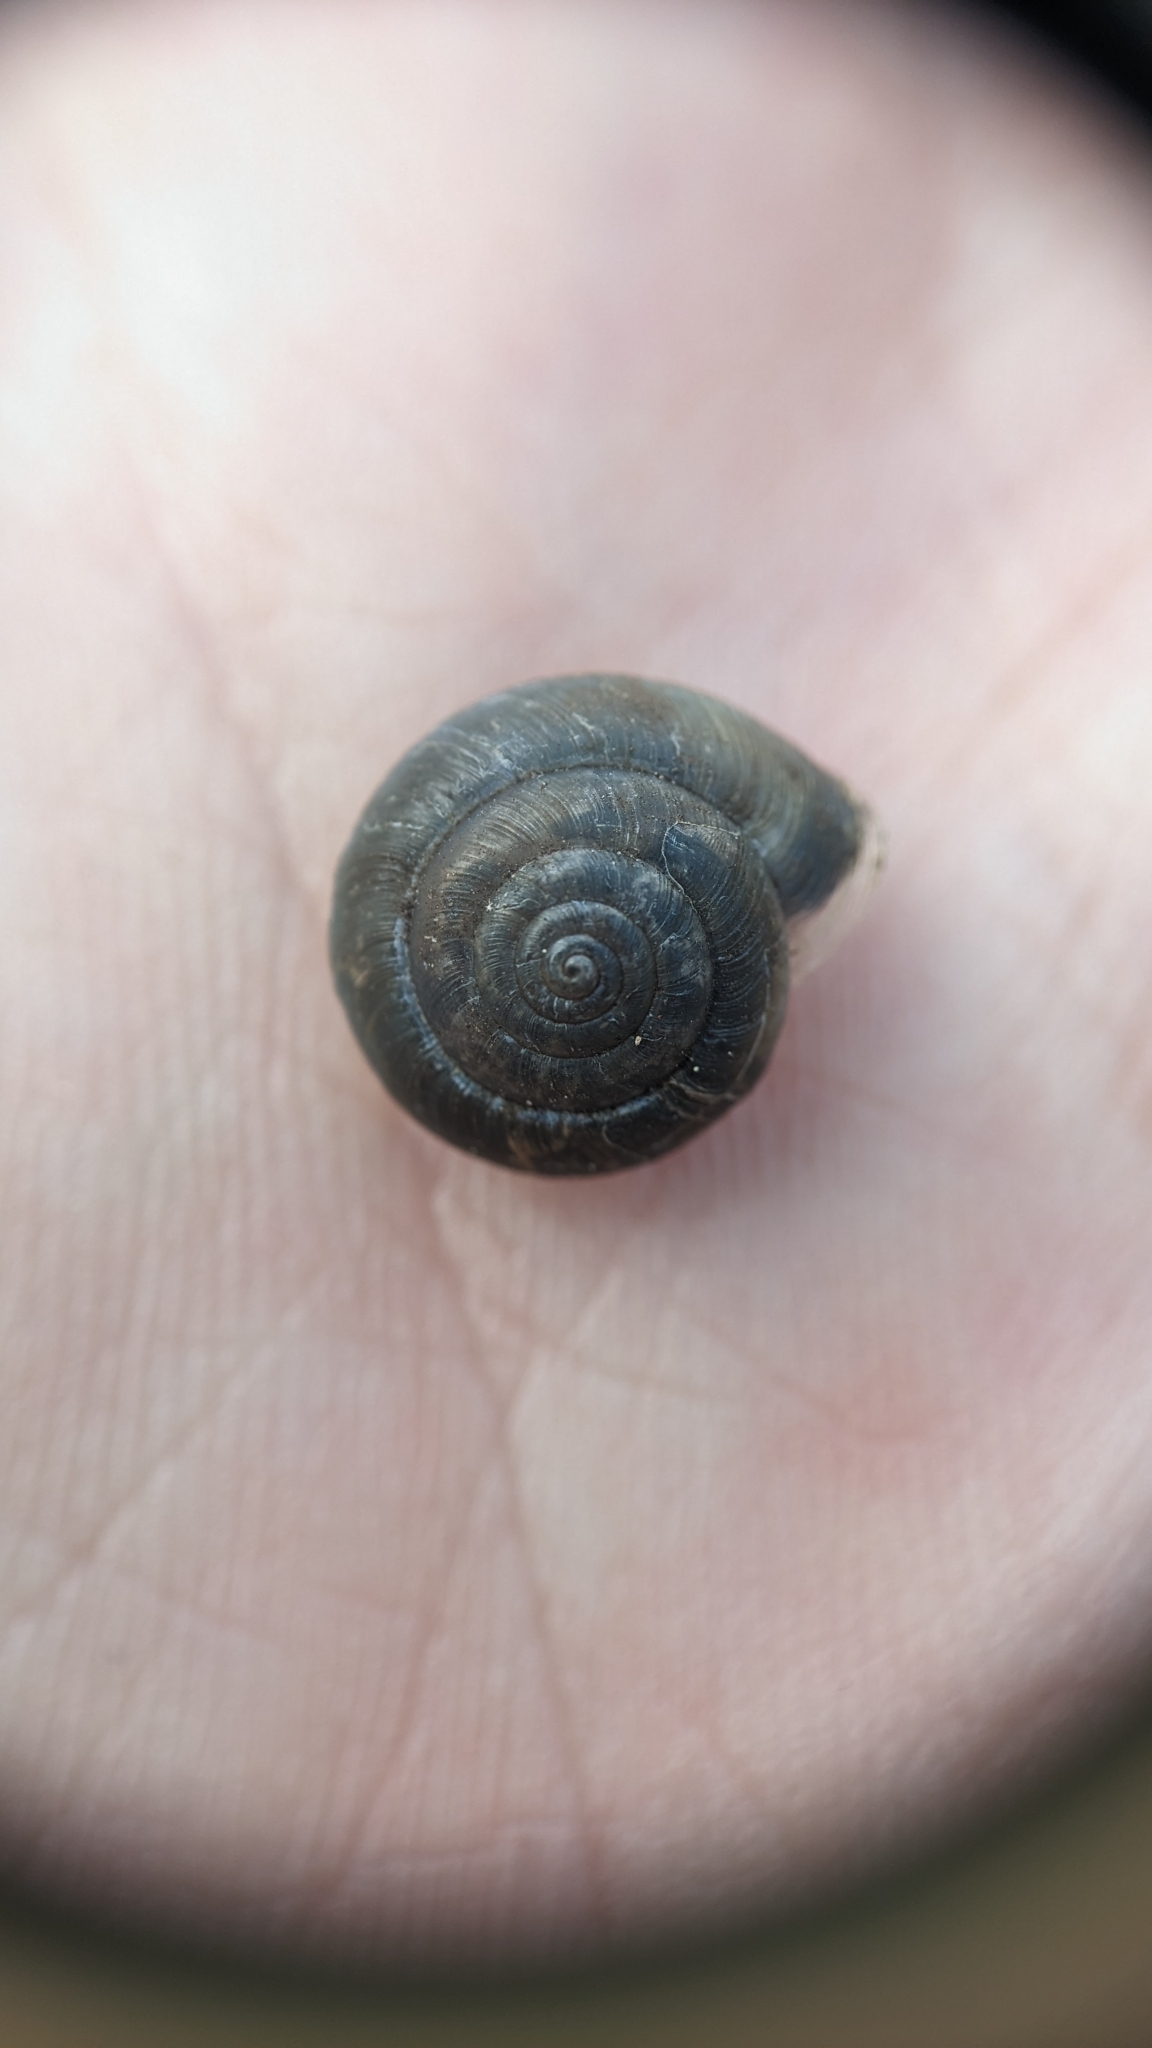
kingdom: Animalia
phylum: Mollusca
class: Gastropoda
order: Stylommatophora
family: Hygromiidae
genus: Trochulus
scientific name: Trochulus striolatus
